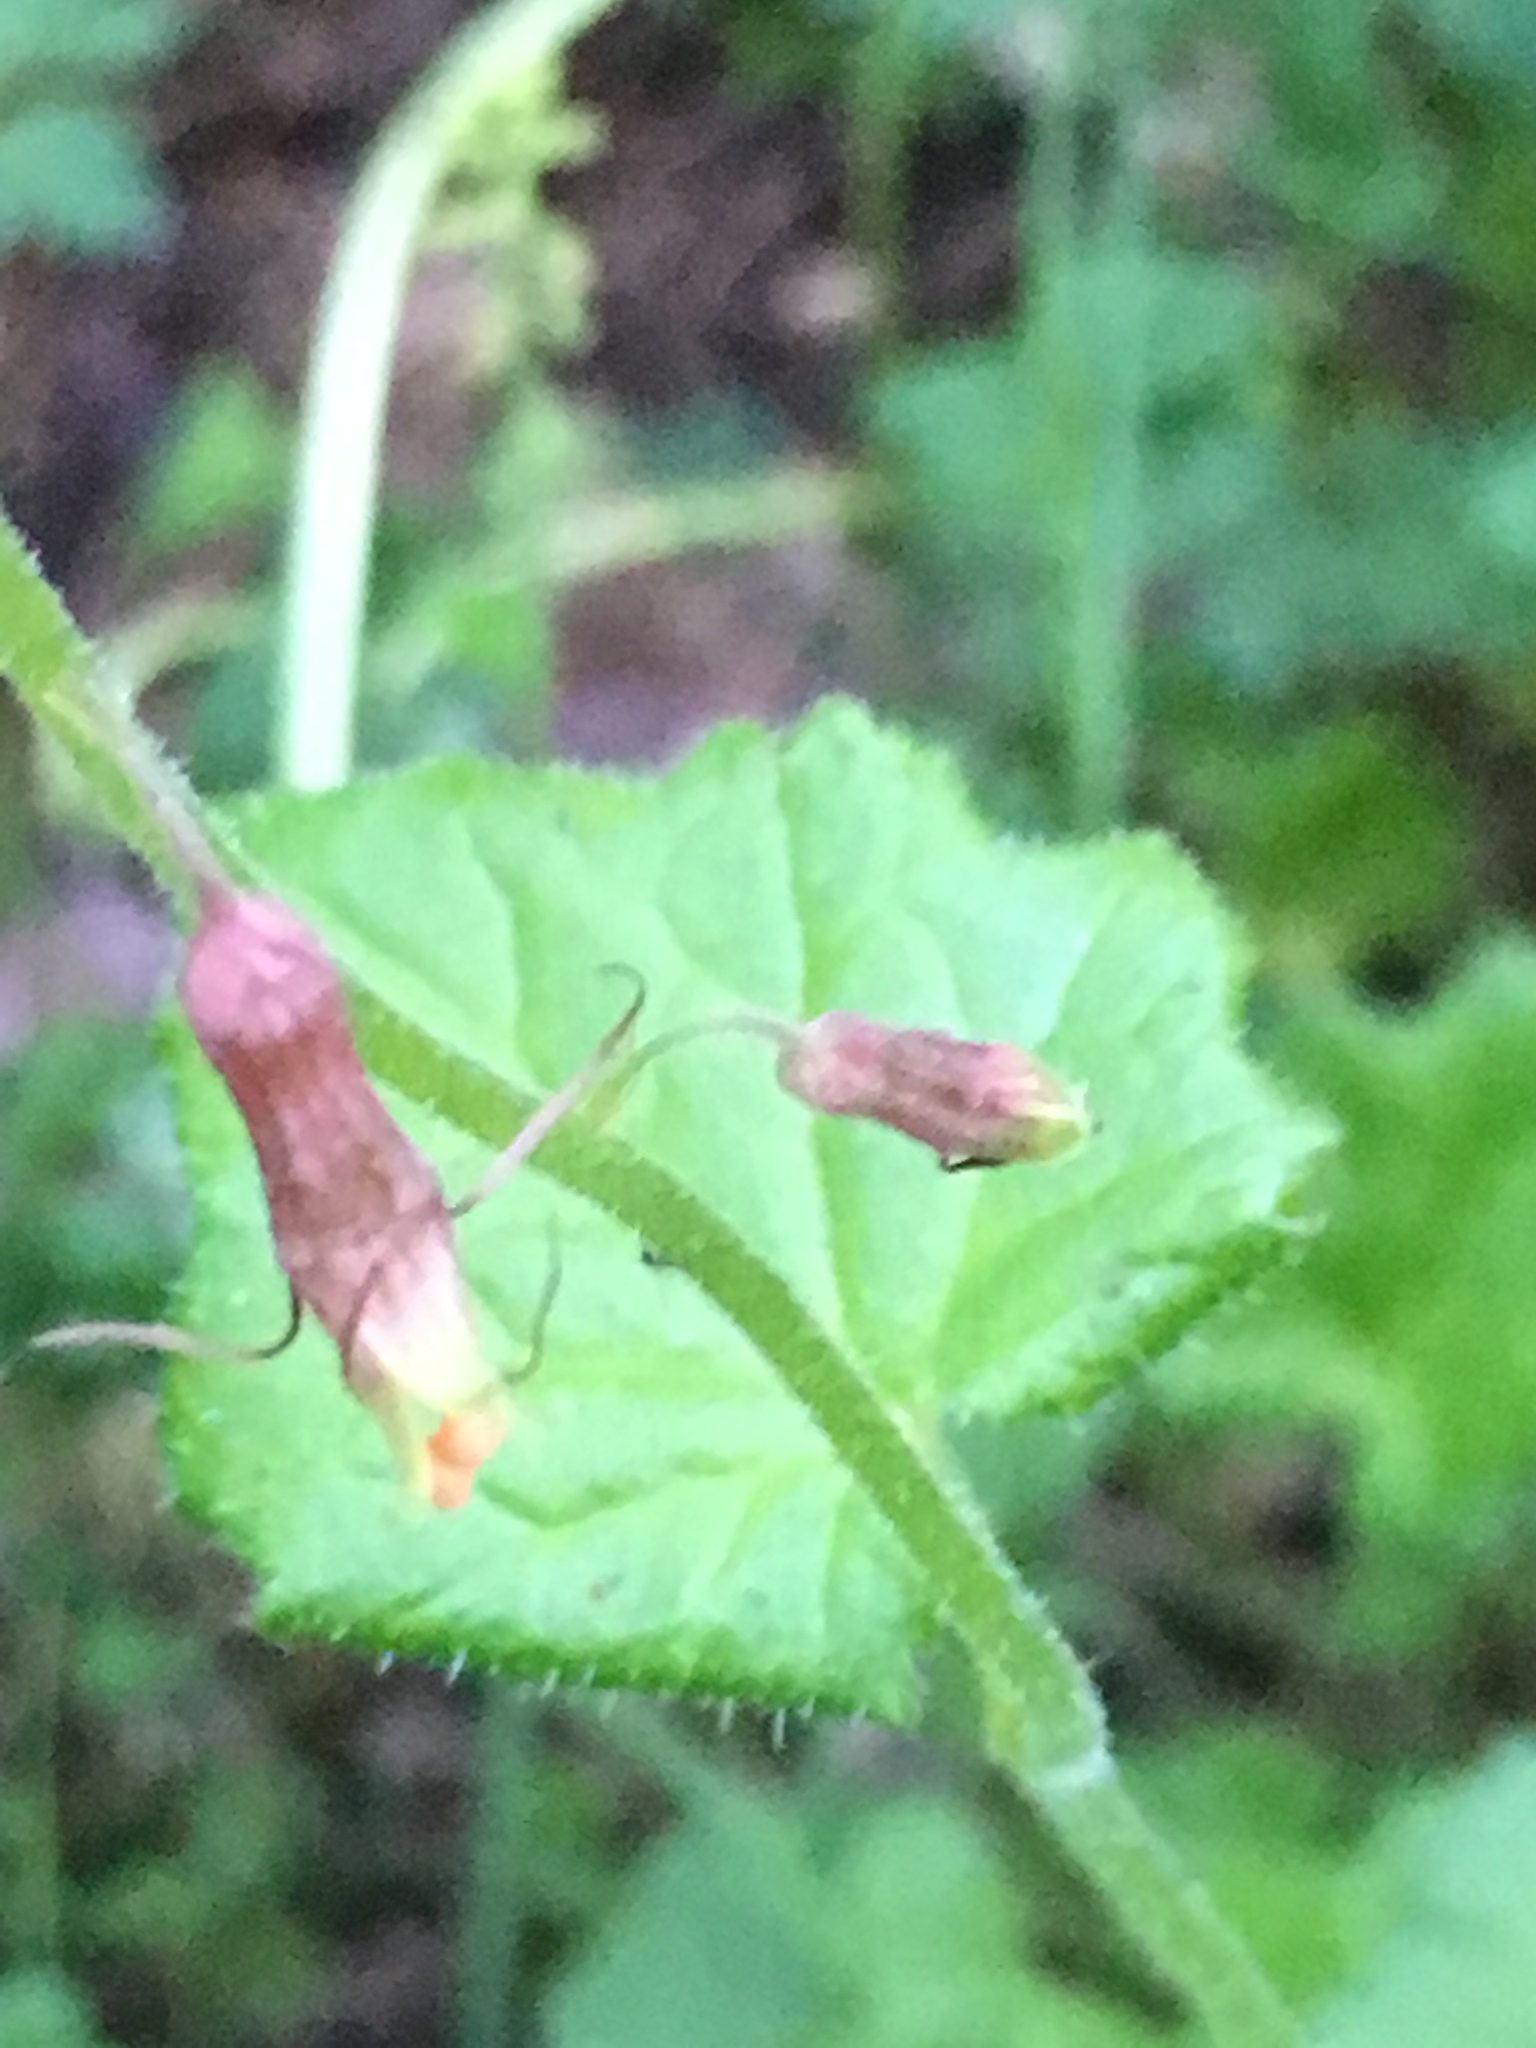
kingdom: Plantae
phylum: Tracheophyta
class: Magnoliopsida
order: Saxifragales
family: Saxifragaceae
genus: Tolmiea
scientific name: Tolmiea menziesii
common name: Pick-a-back-plant
